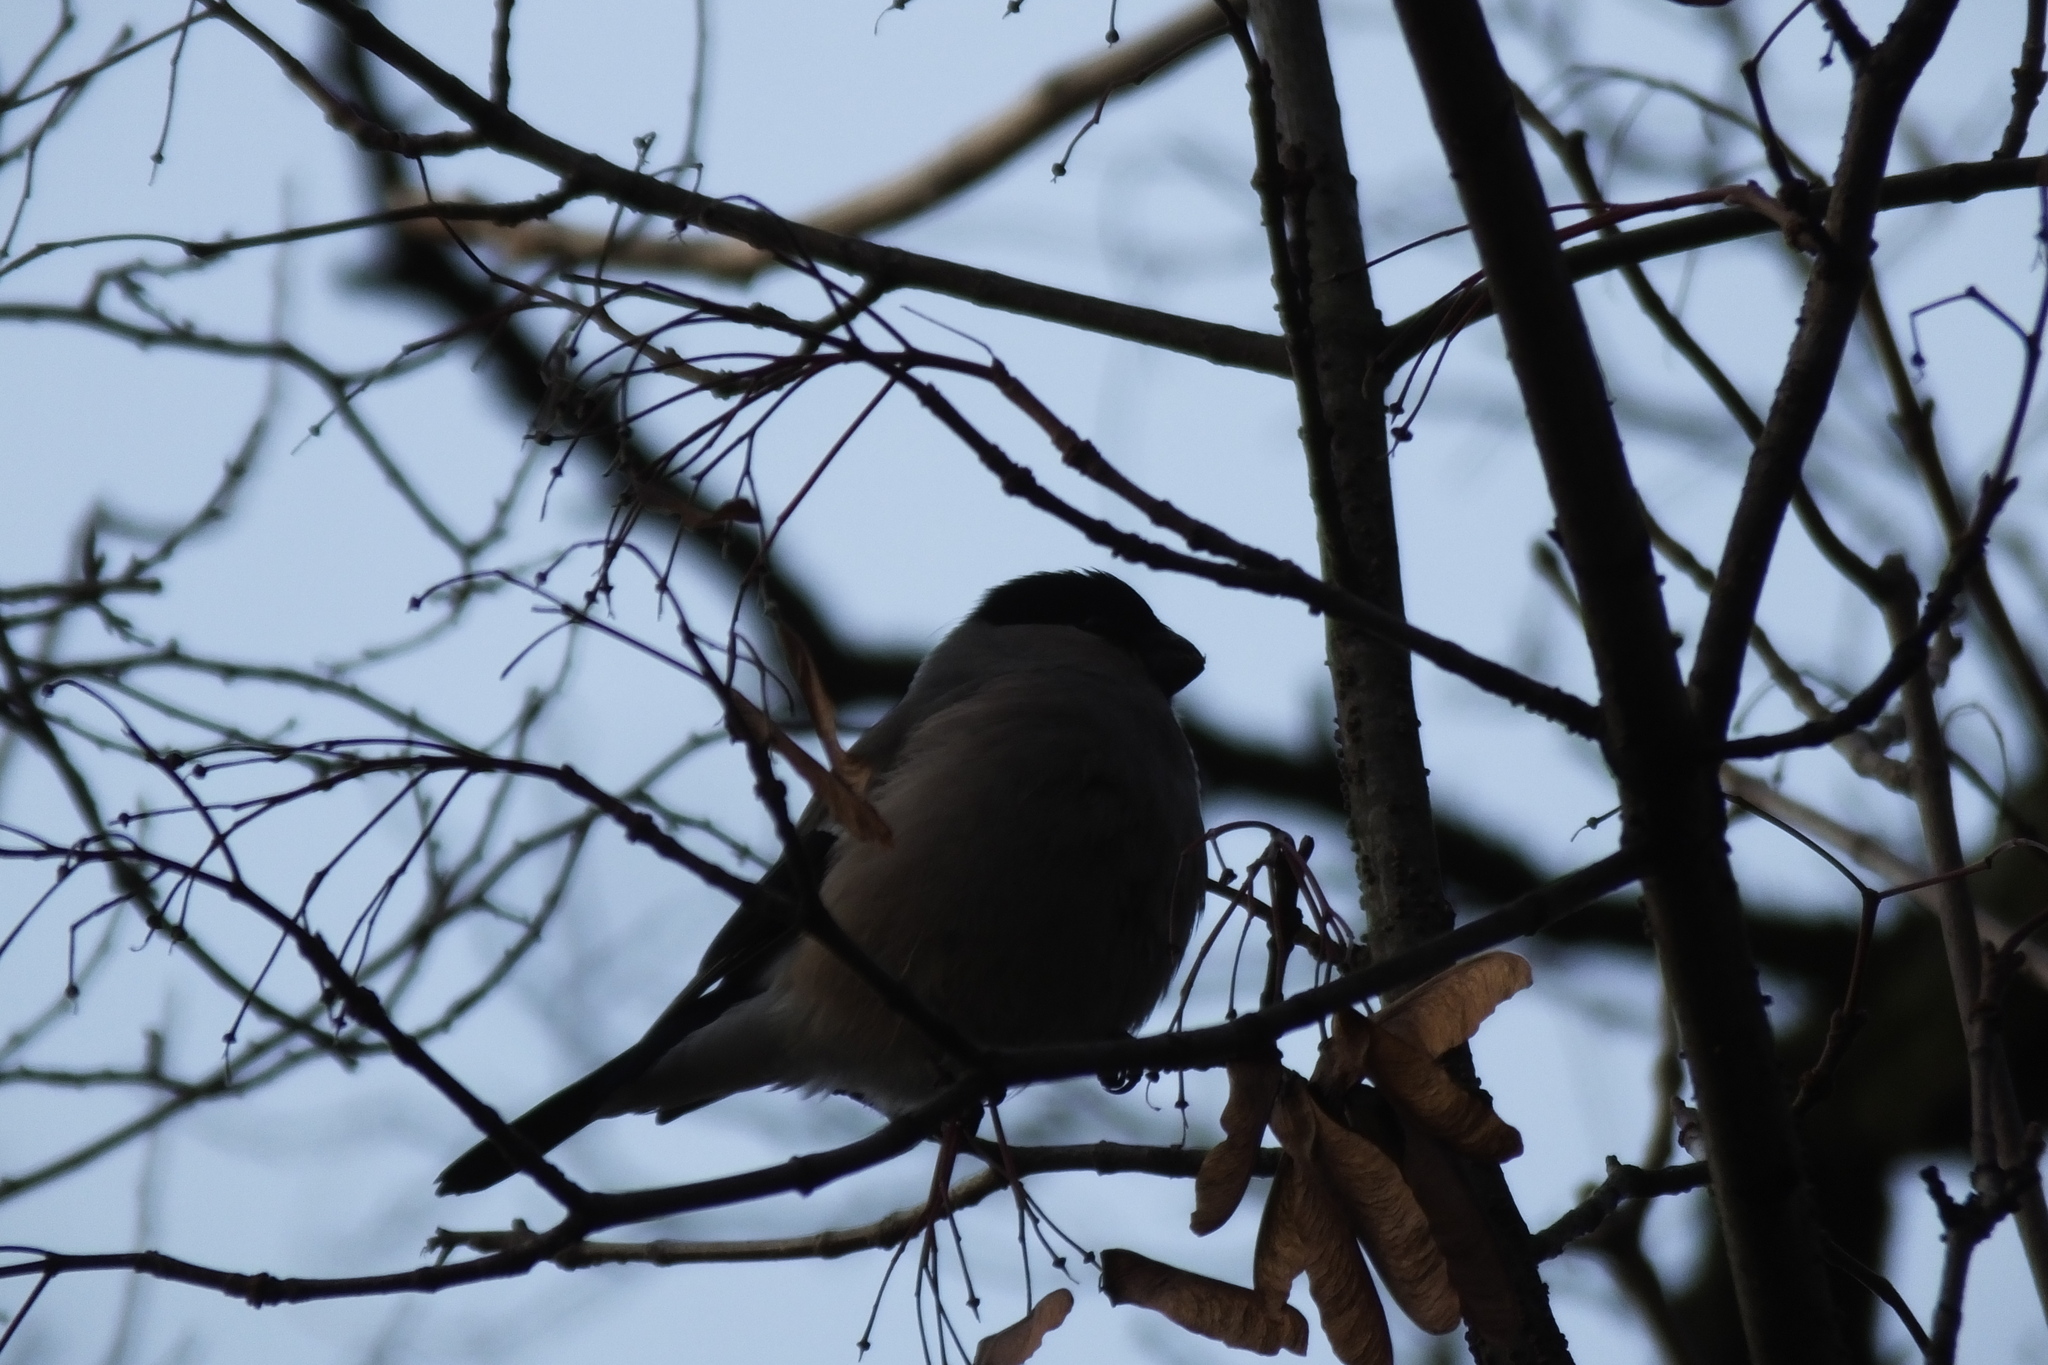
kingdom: Animalia
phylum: Chordata
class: Aves
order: Passeriformes
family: Fringillidae
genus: Pyrrhula
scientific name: Pyrrhula pyrrhula
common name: Eurasian bullfinch
